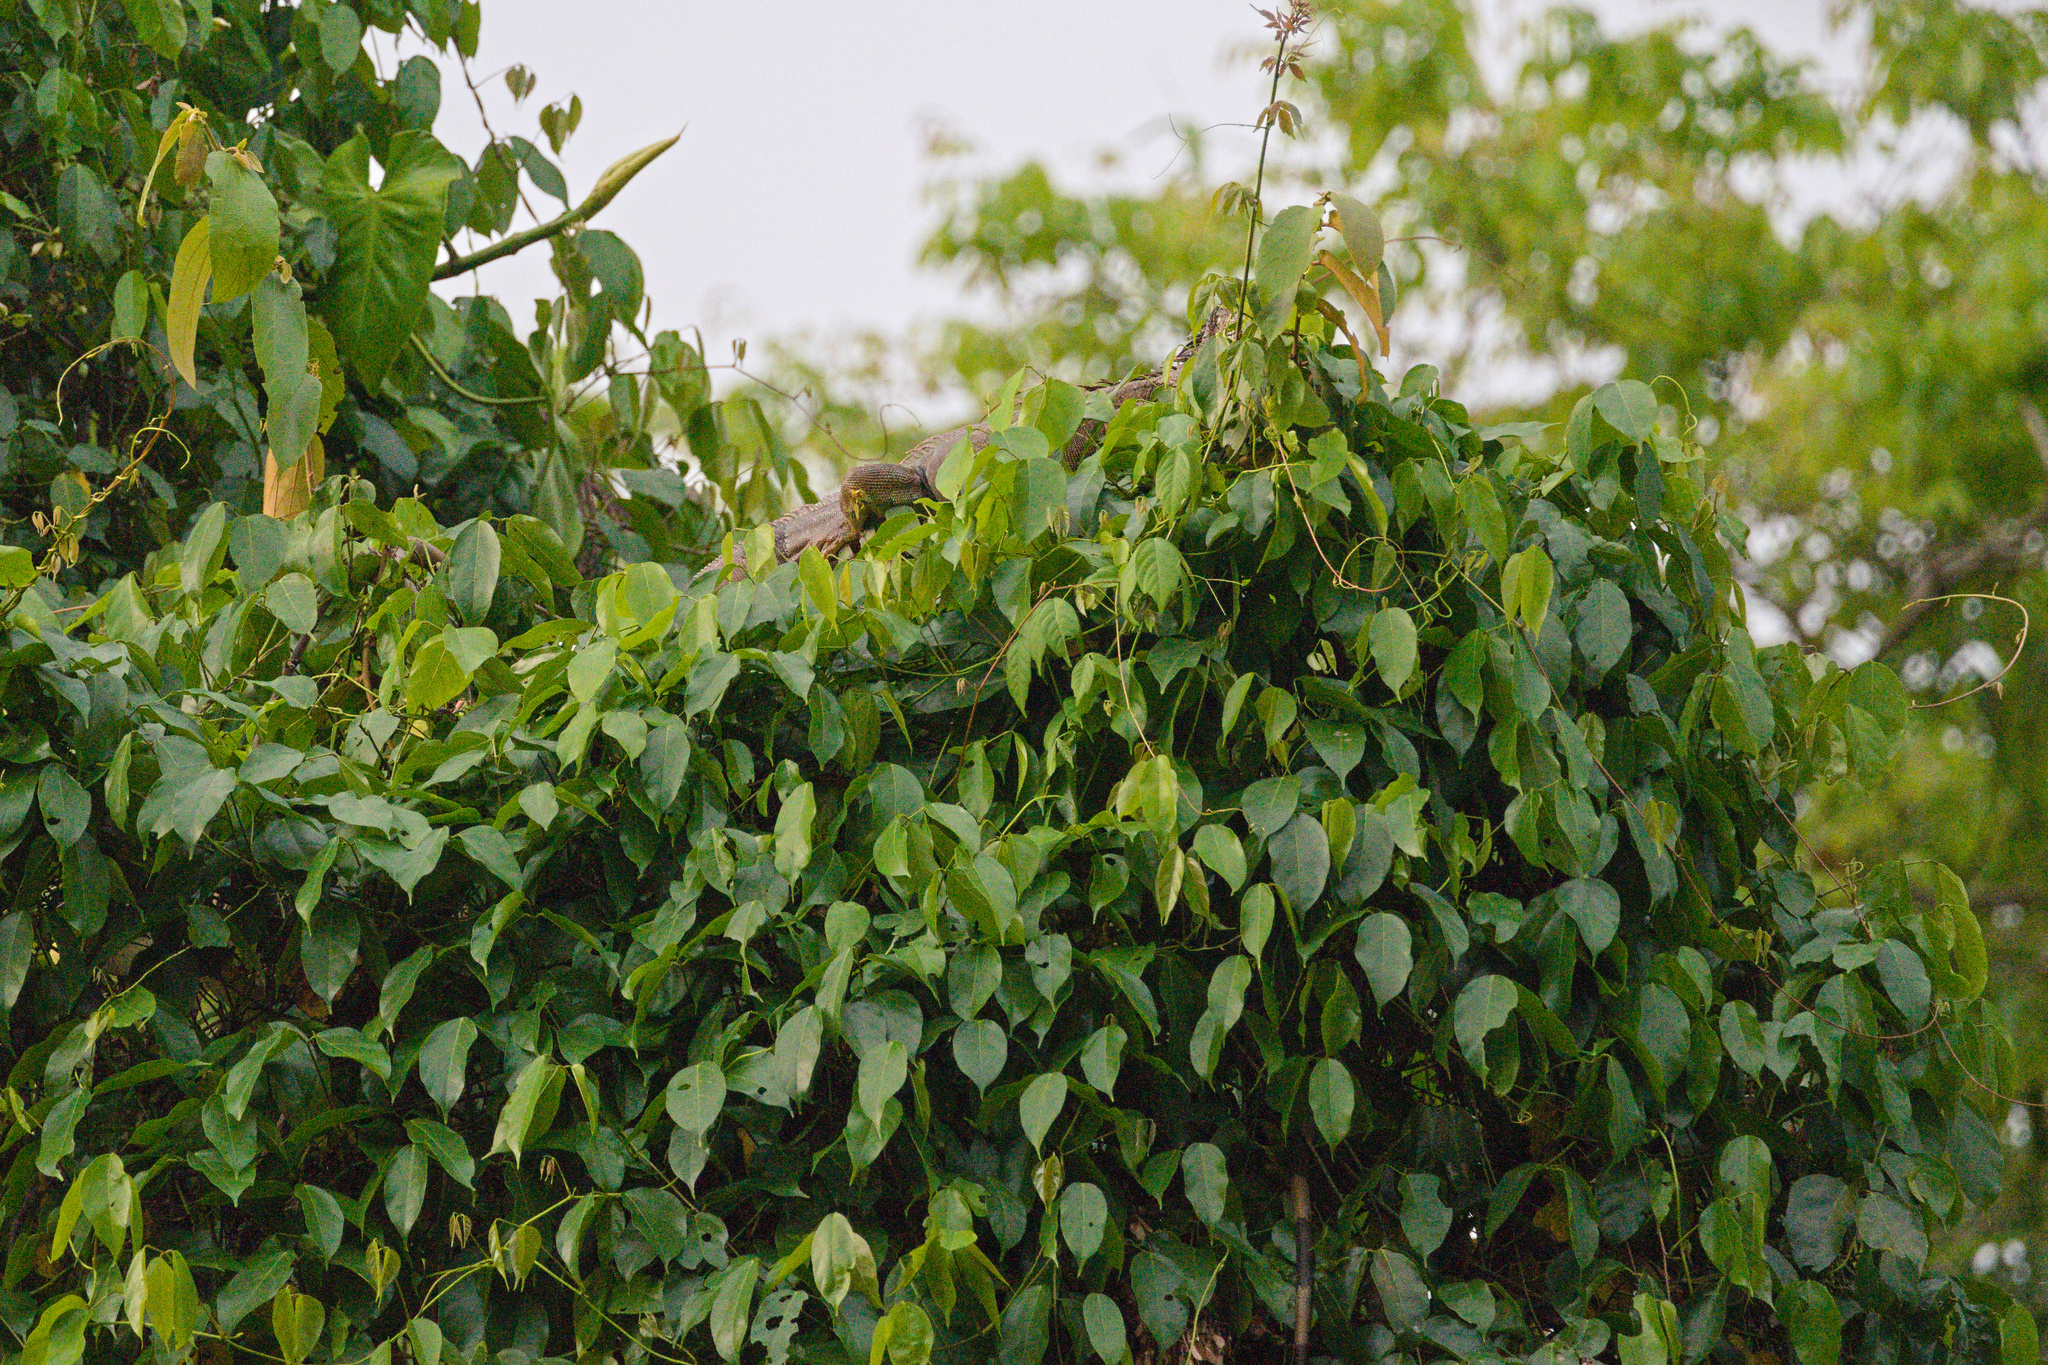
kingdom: Animalia
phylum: Chordata
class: Squamata
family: Iguanidae
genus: Iguana
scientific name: Iguana iguana
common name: Green iguana
